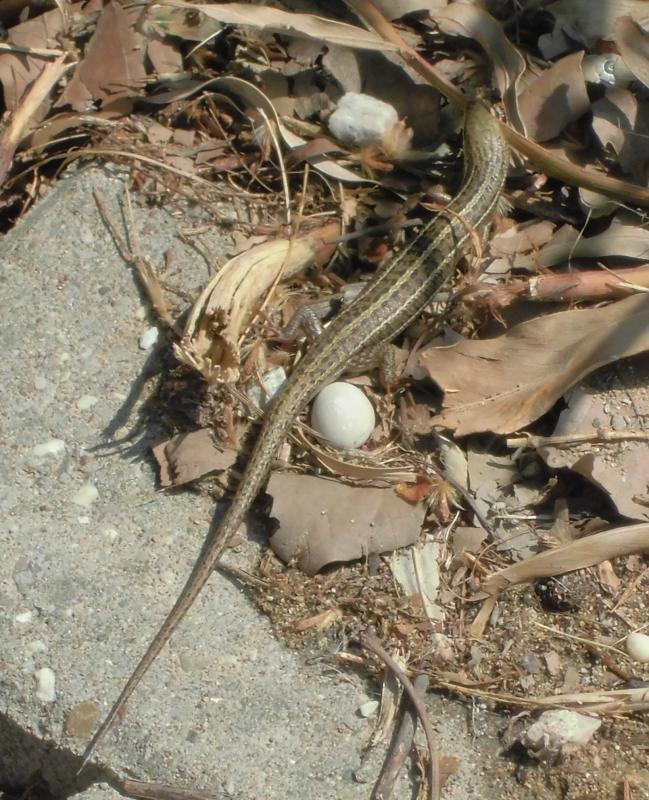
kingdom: Animalia
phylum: Chordata
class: Squamata
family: Scincidae
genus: Heremites
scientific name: Heremites vittatus
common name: Bridled mabuya
